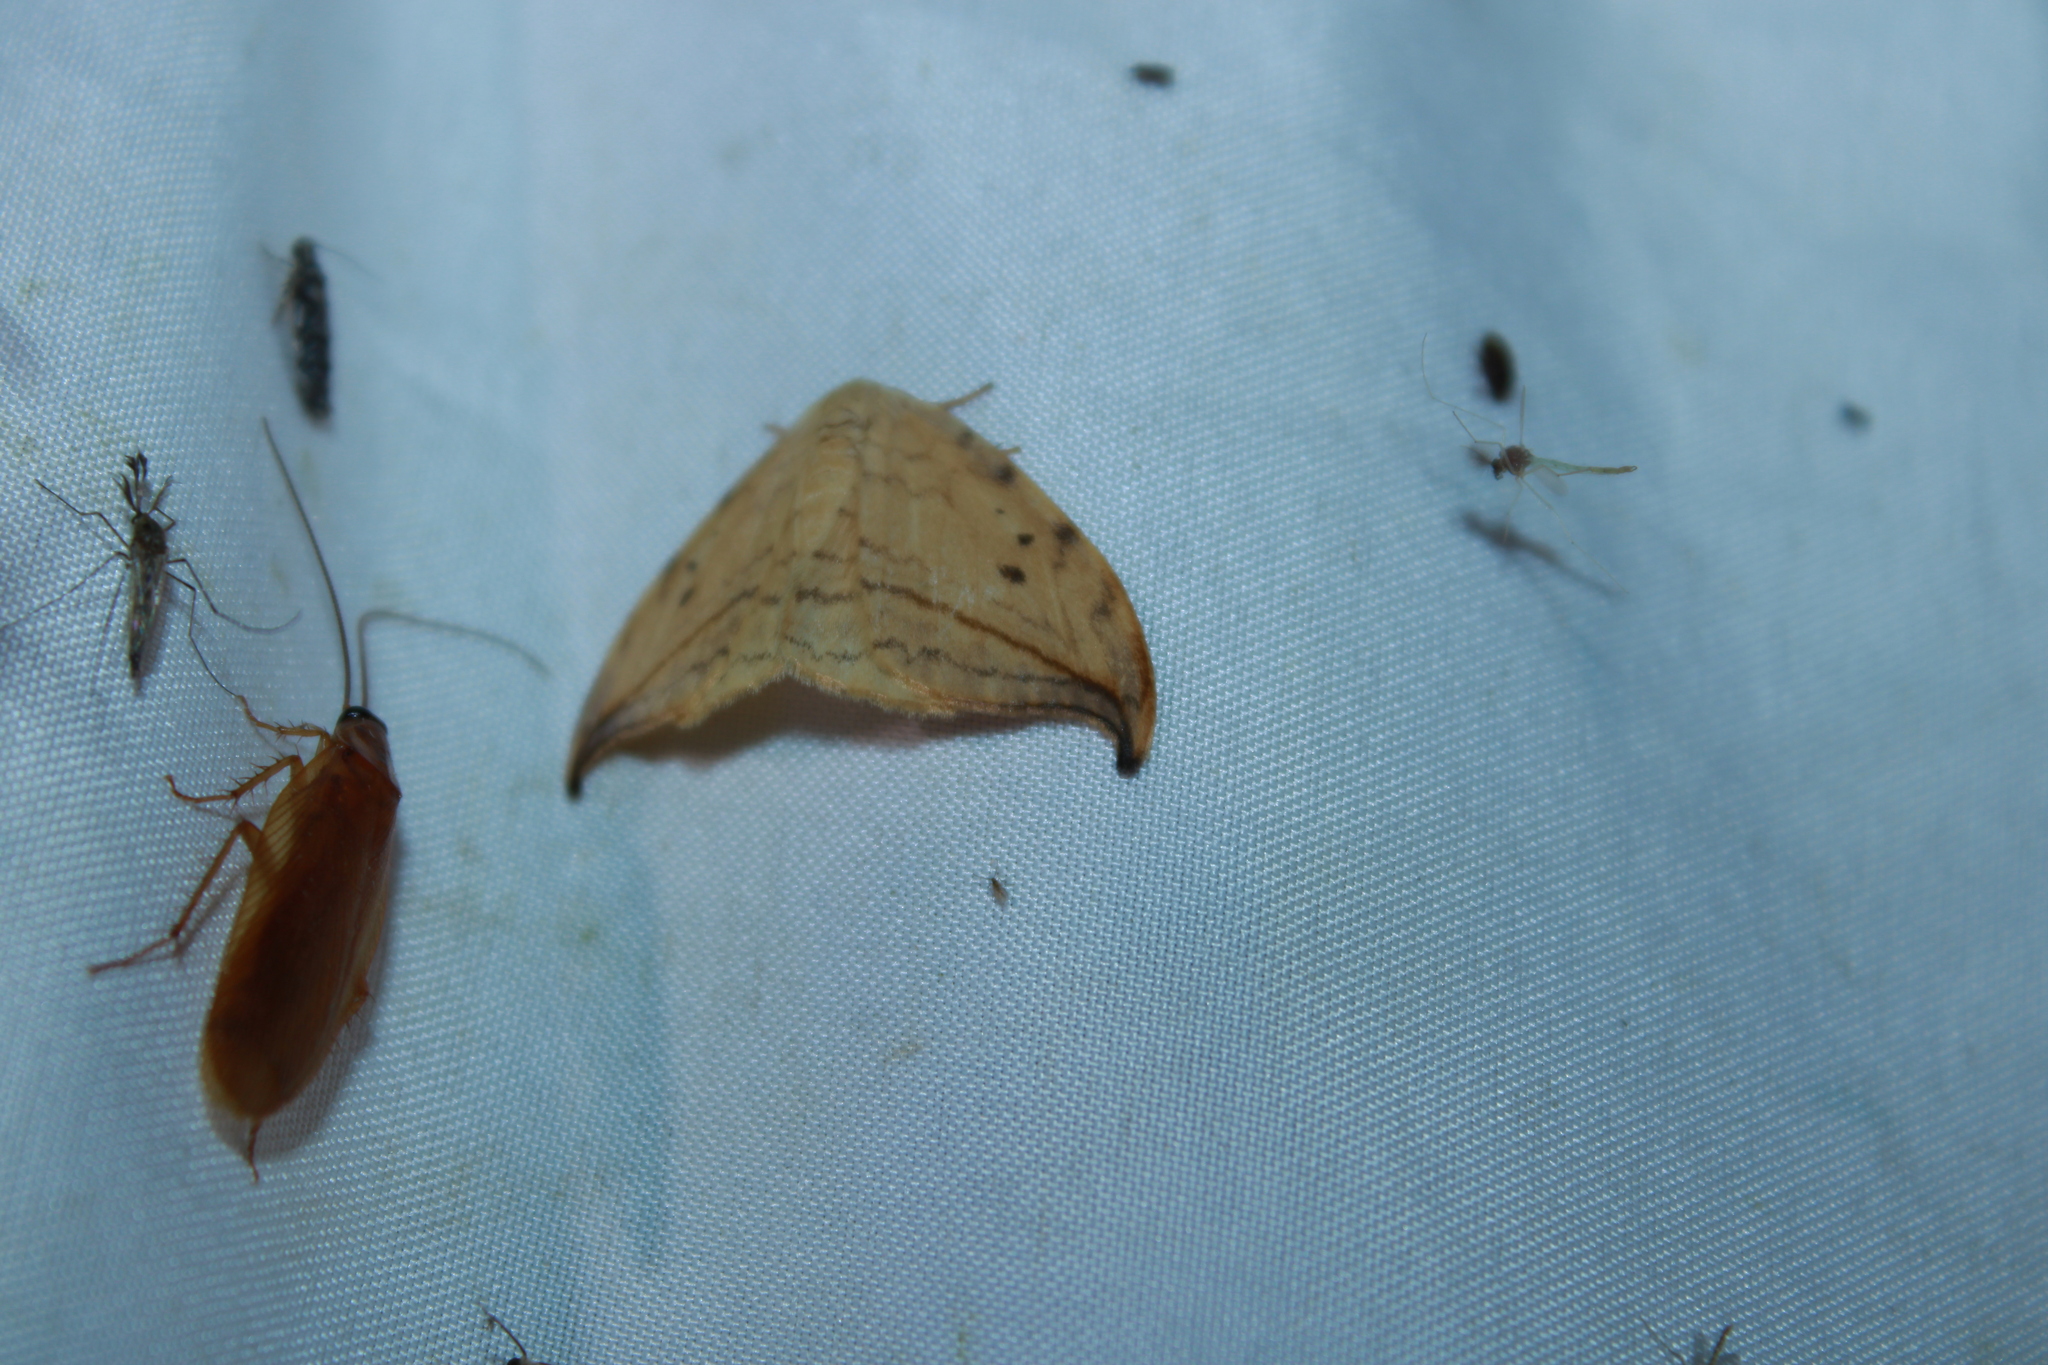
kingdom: Animalia
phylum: Arthropoda
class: Insecta
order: Lepidoptera
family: Drepanidae
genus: Drepana
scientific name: Drepana arcuata
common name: Arched hooktip moth
